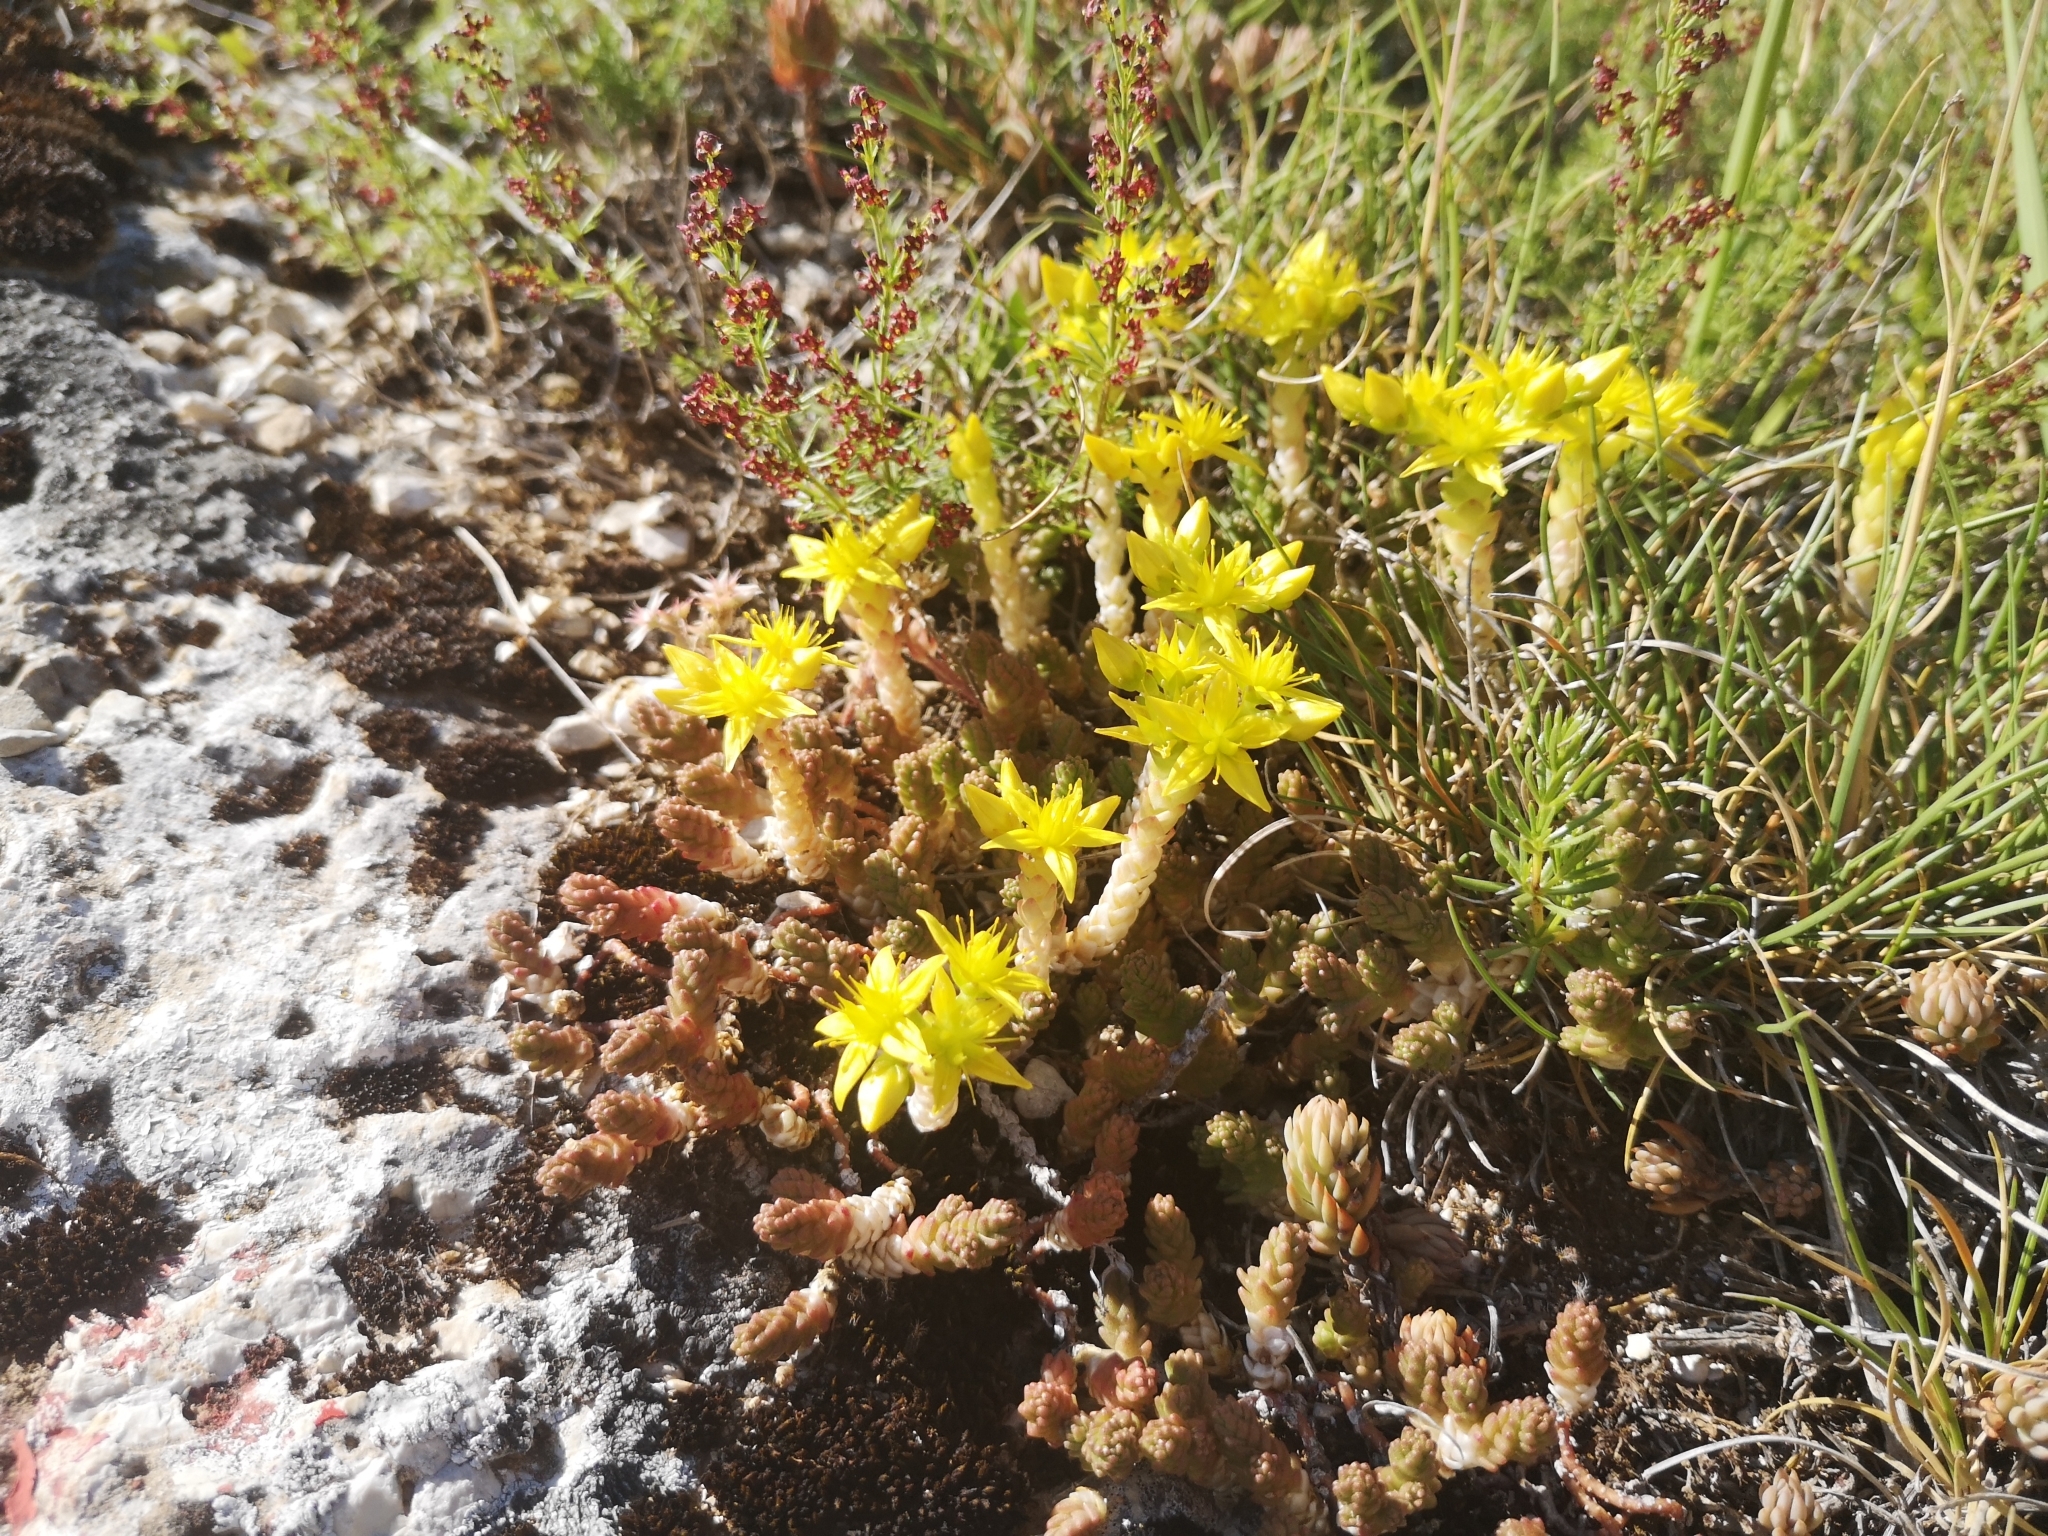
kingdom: Plantae
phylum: Tracheophyta
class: Magnoliopsida
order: Saxifragales
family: Crassulaceae
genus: Sedum
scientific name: Sedum acre
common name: Biting stonecrop
